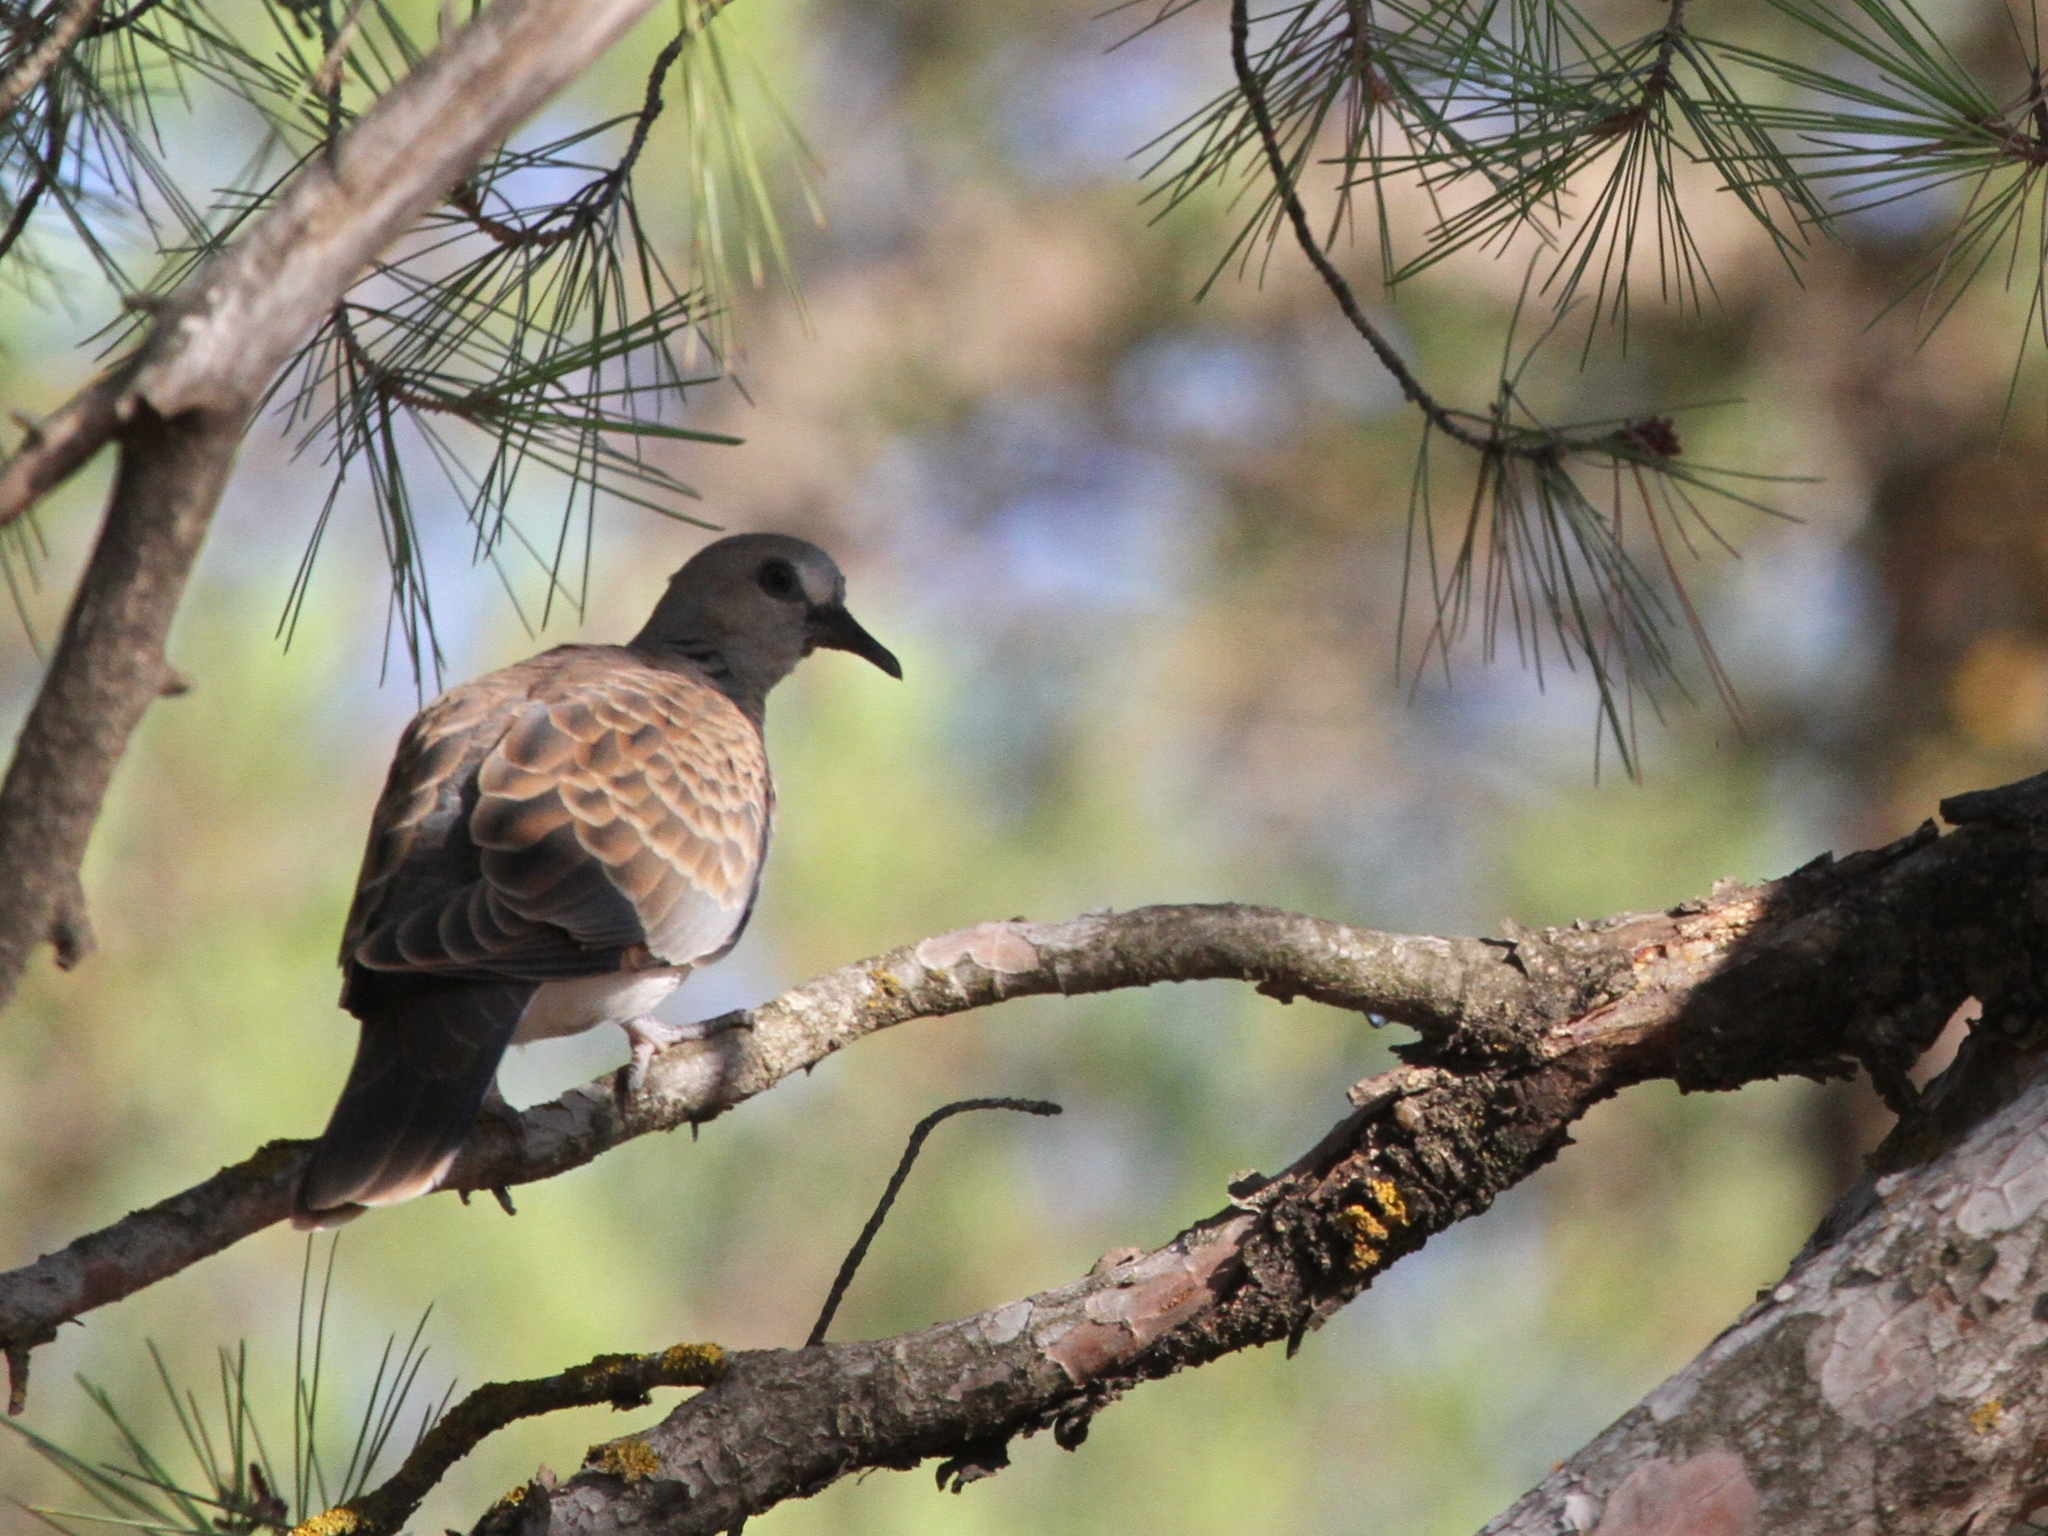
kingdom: Animalia
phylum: Chordata
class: Aves
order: Columbiformes
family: Columbidae
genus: Streptopelia
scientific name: Streptopelia turtur
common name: European turtle dove
